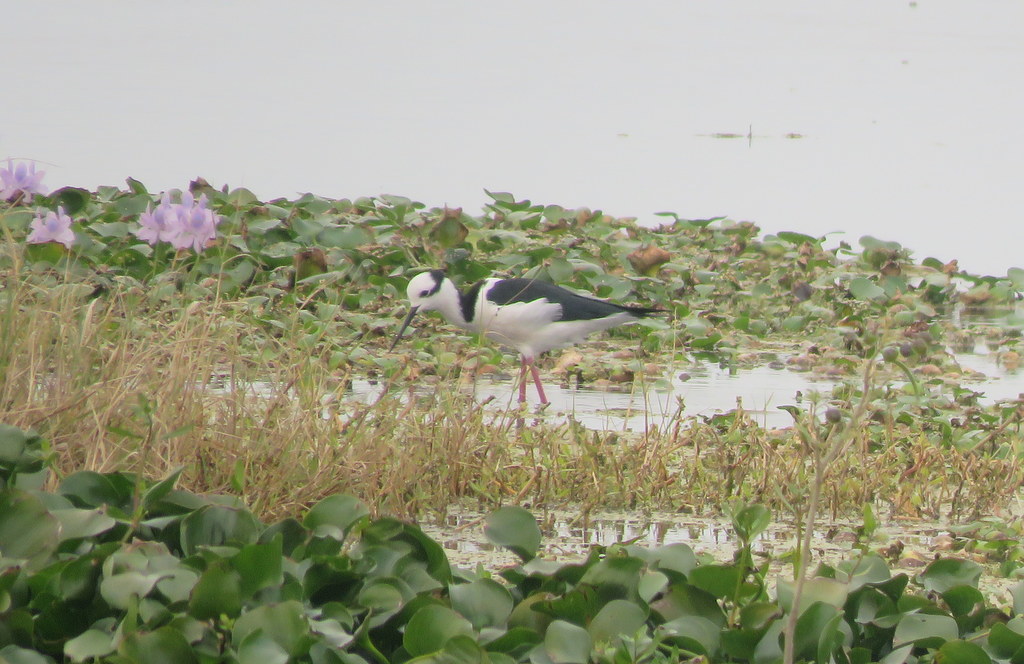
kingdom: Animalia
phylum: Chordata
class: Aves
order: Charadriiformes
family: Recurvirostridae
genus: Himantopus
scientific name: Himantopus mexicanus
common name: Black-necked stilt
